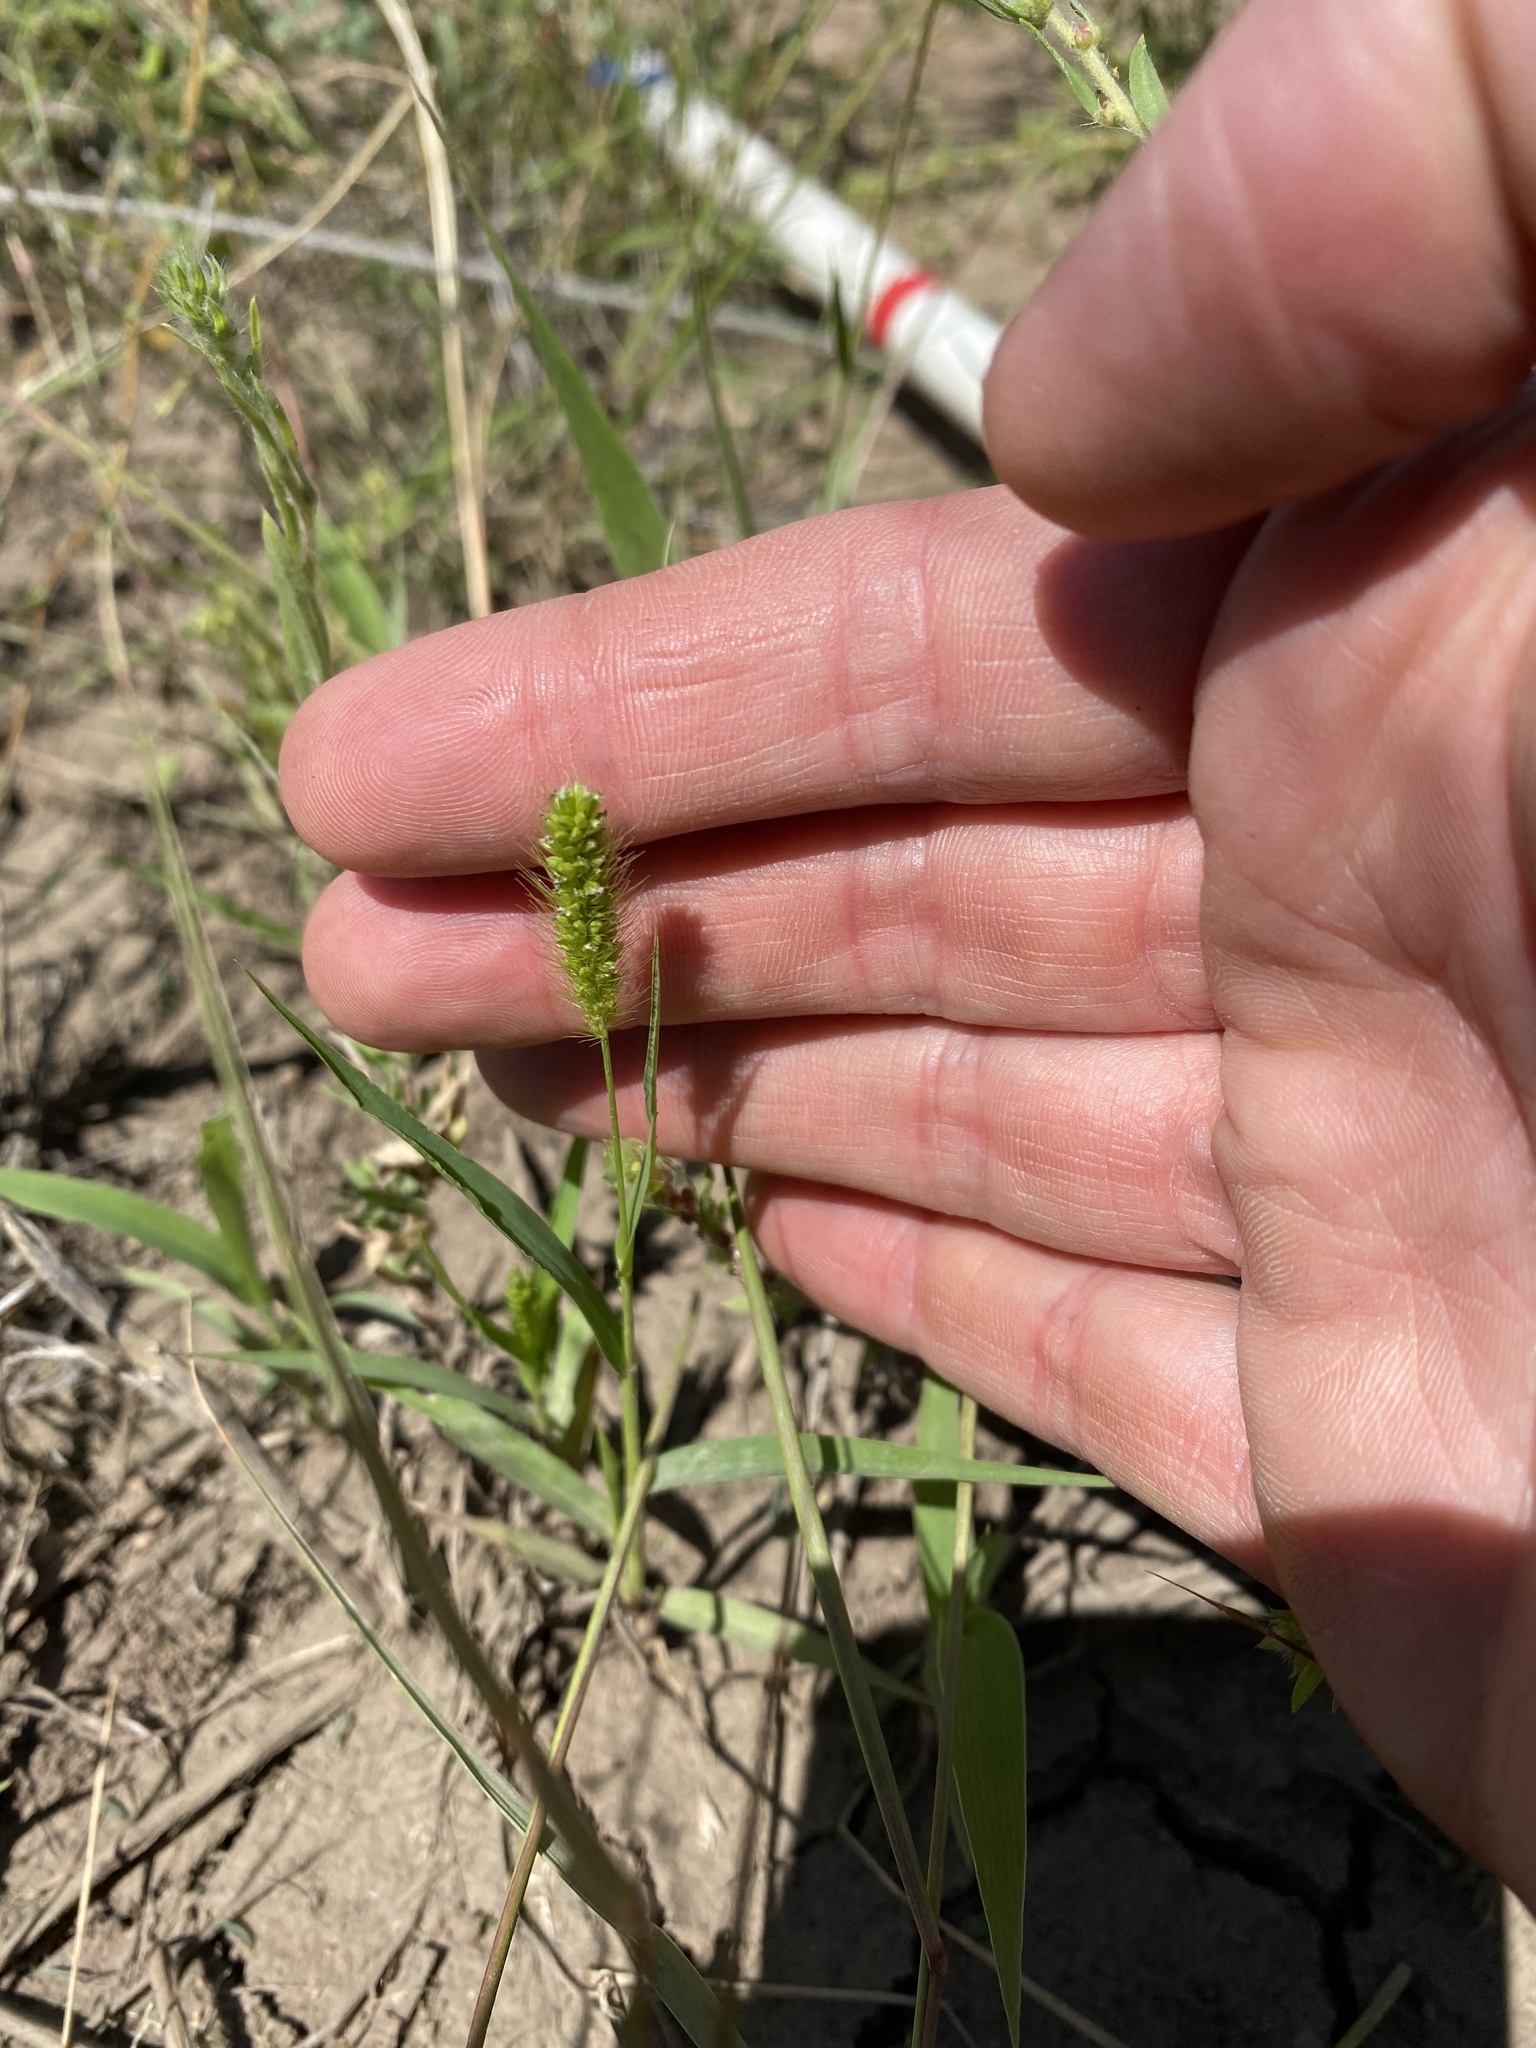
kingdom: Plantae
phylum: Tracheophyta
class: Liliopsida
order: Poales
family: Poaceae
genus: Setaria
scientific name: Setaria viridis
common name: Green bristlegrass
